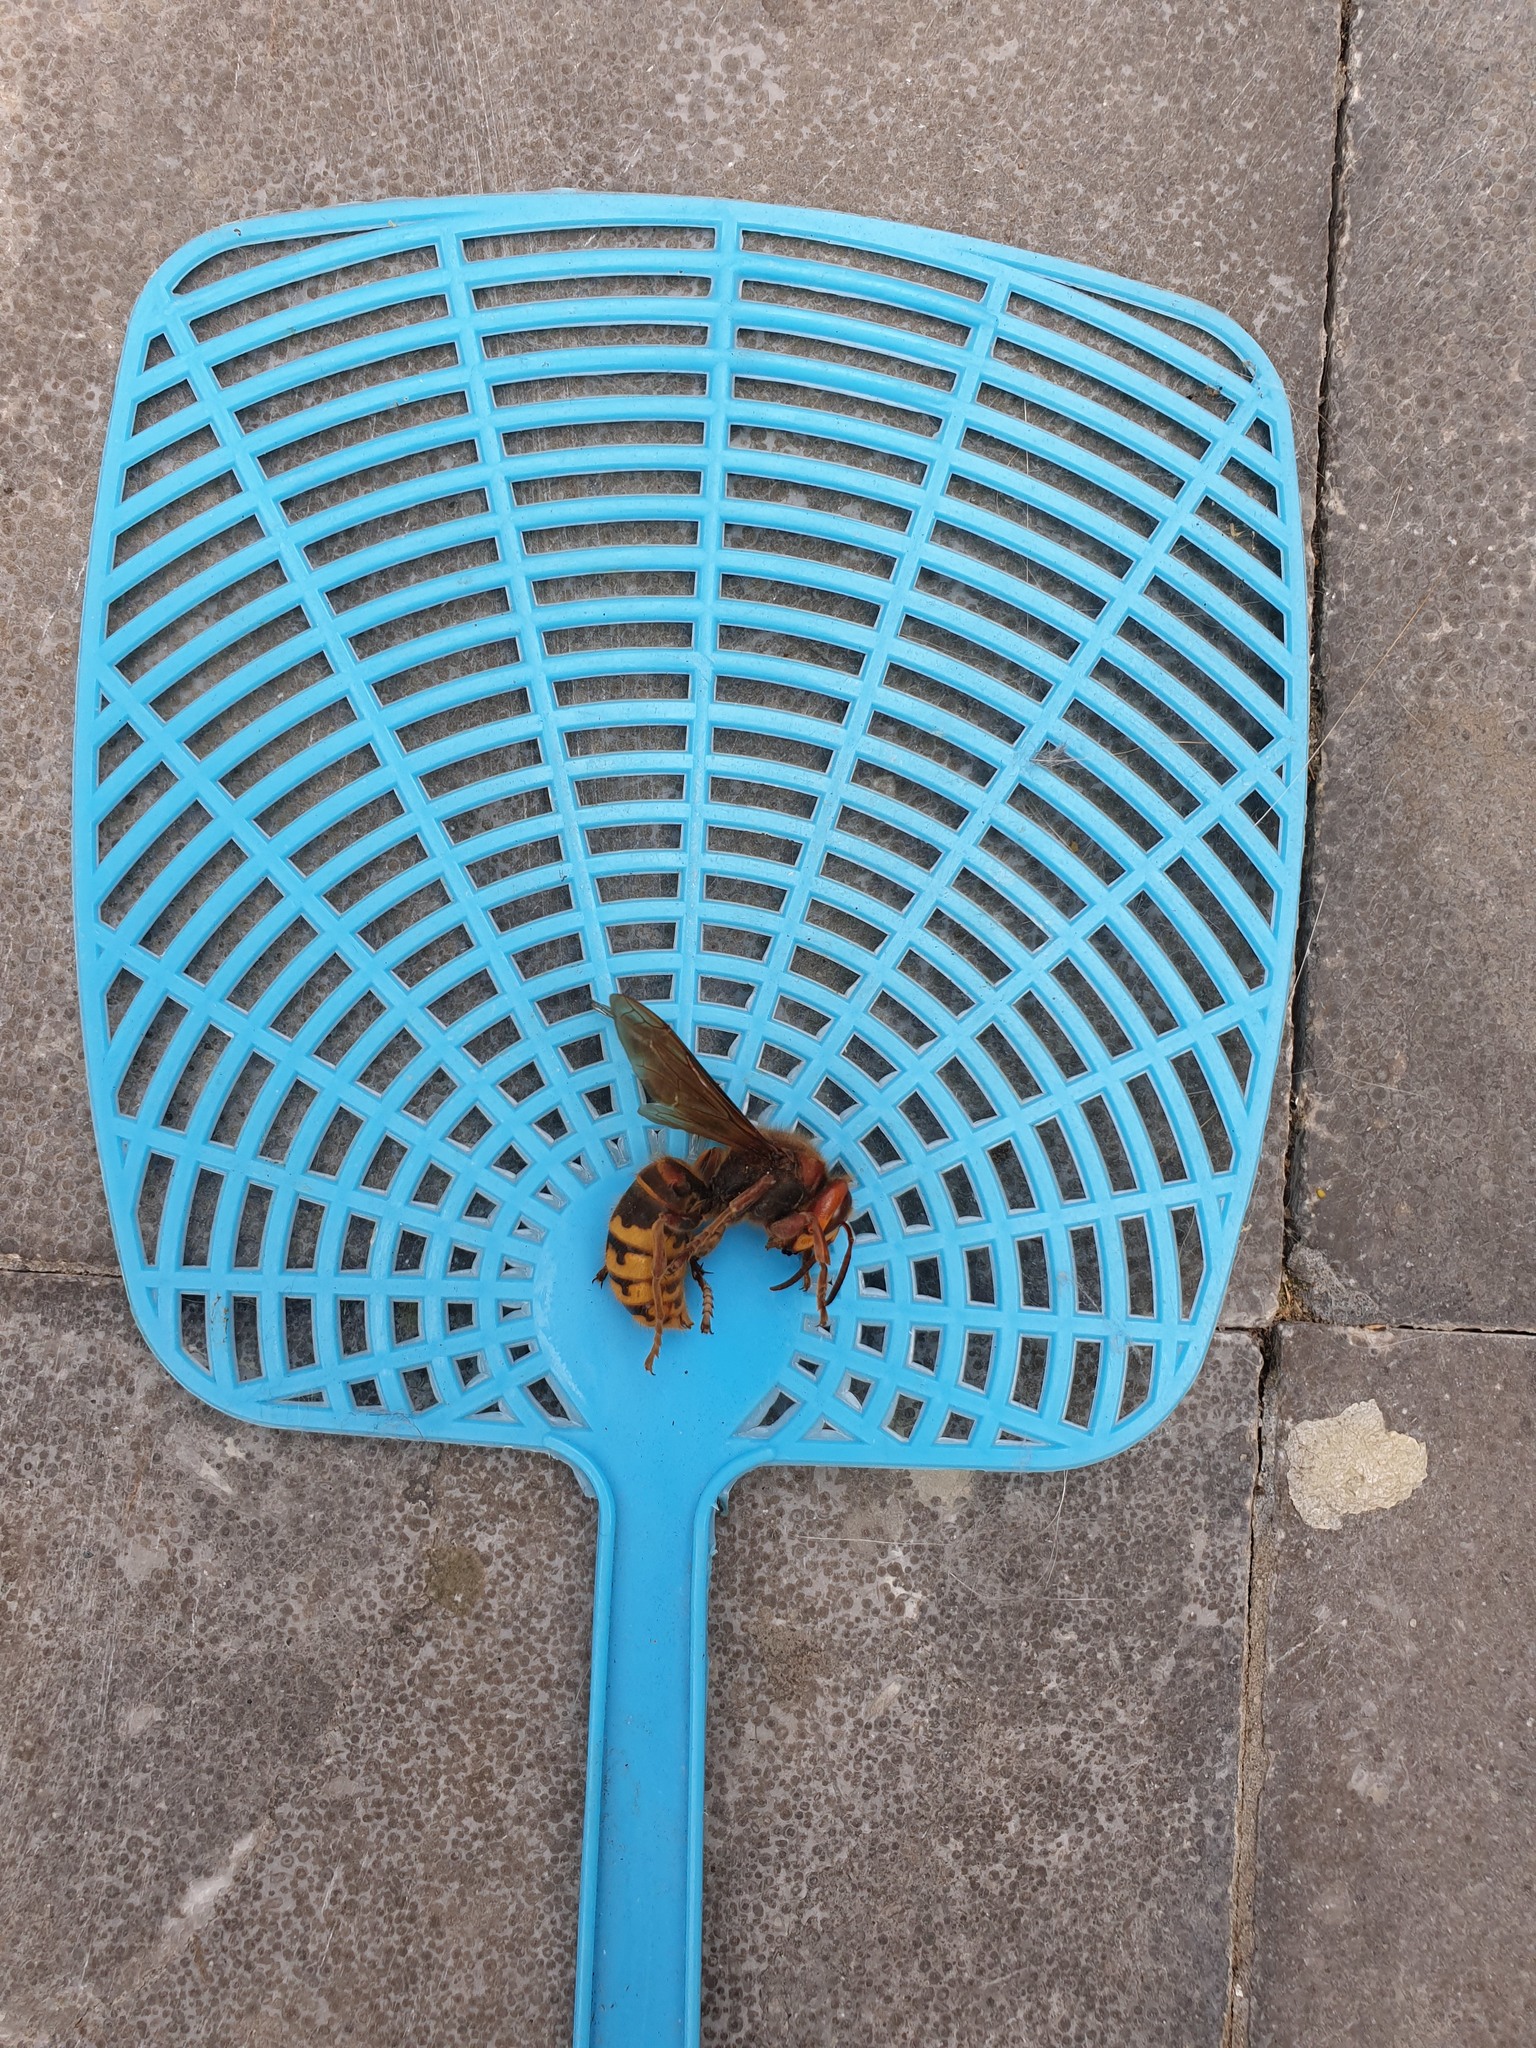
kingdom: Animalia
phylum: Arthropoda
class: Insecta
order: Hymenoptera
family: Vespidae
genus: Vespa
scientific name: Vespa crabro
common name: Hornet
